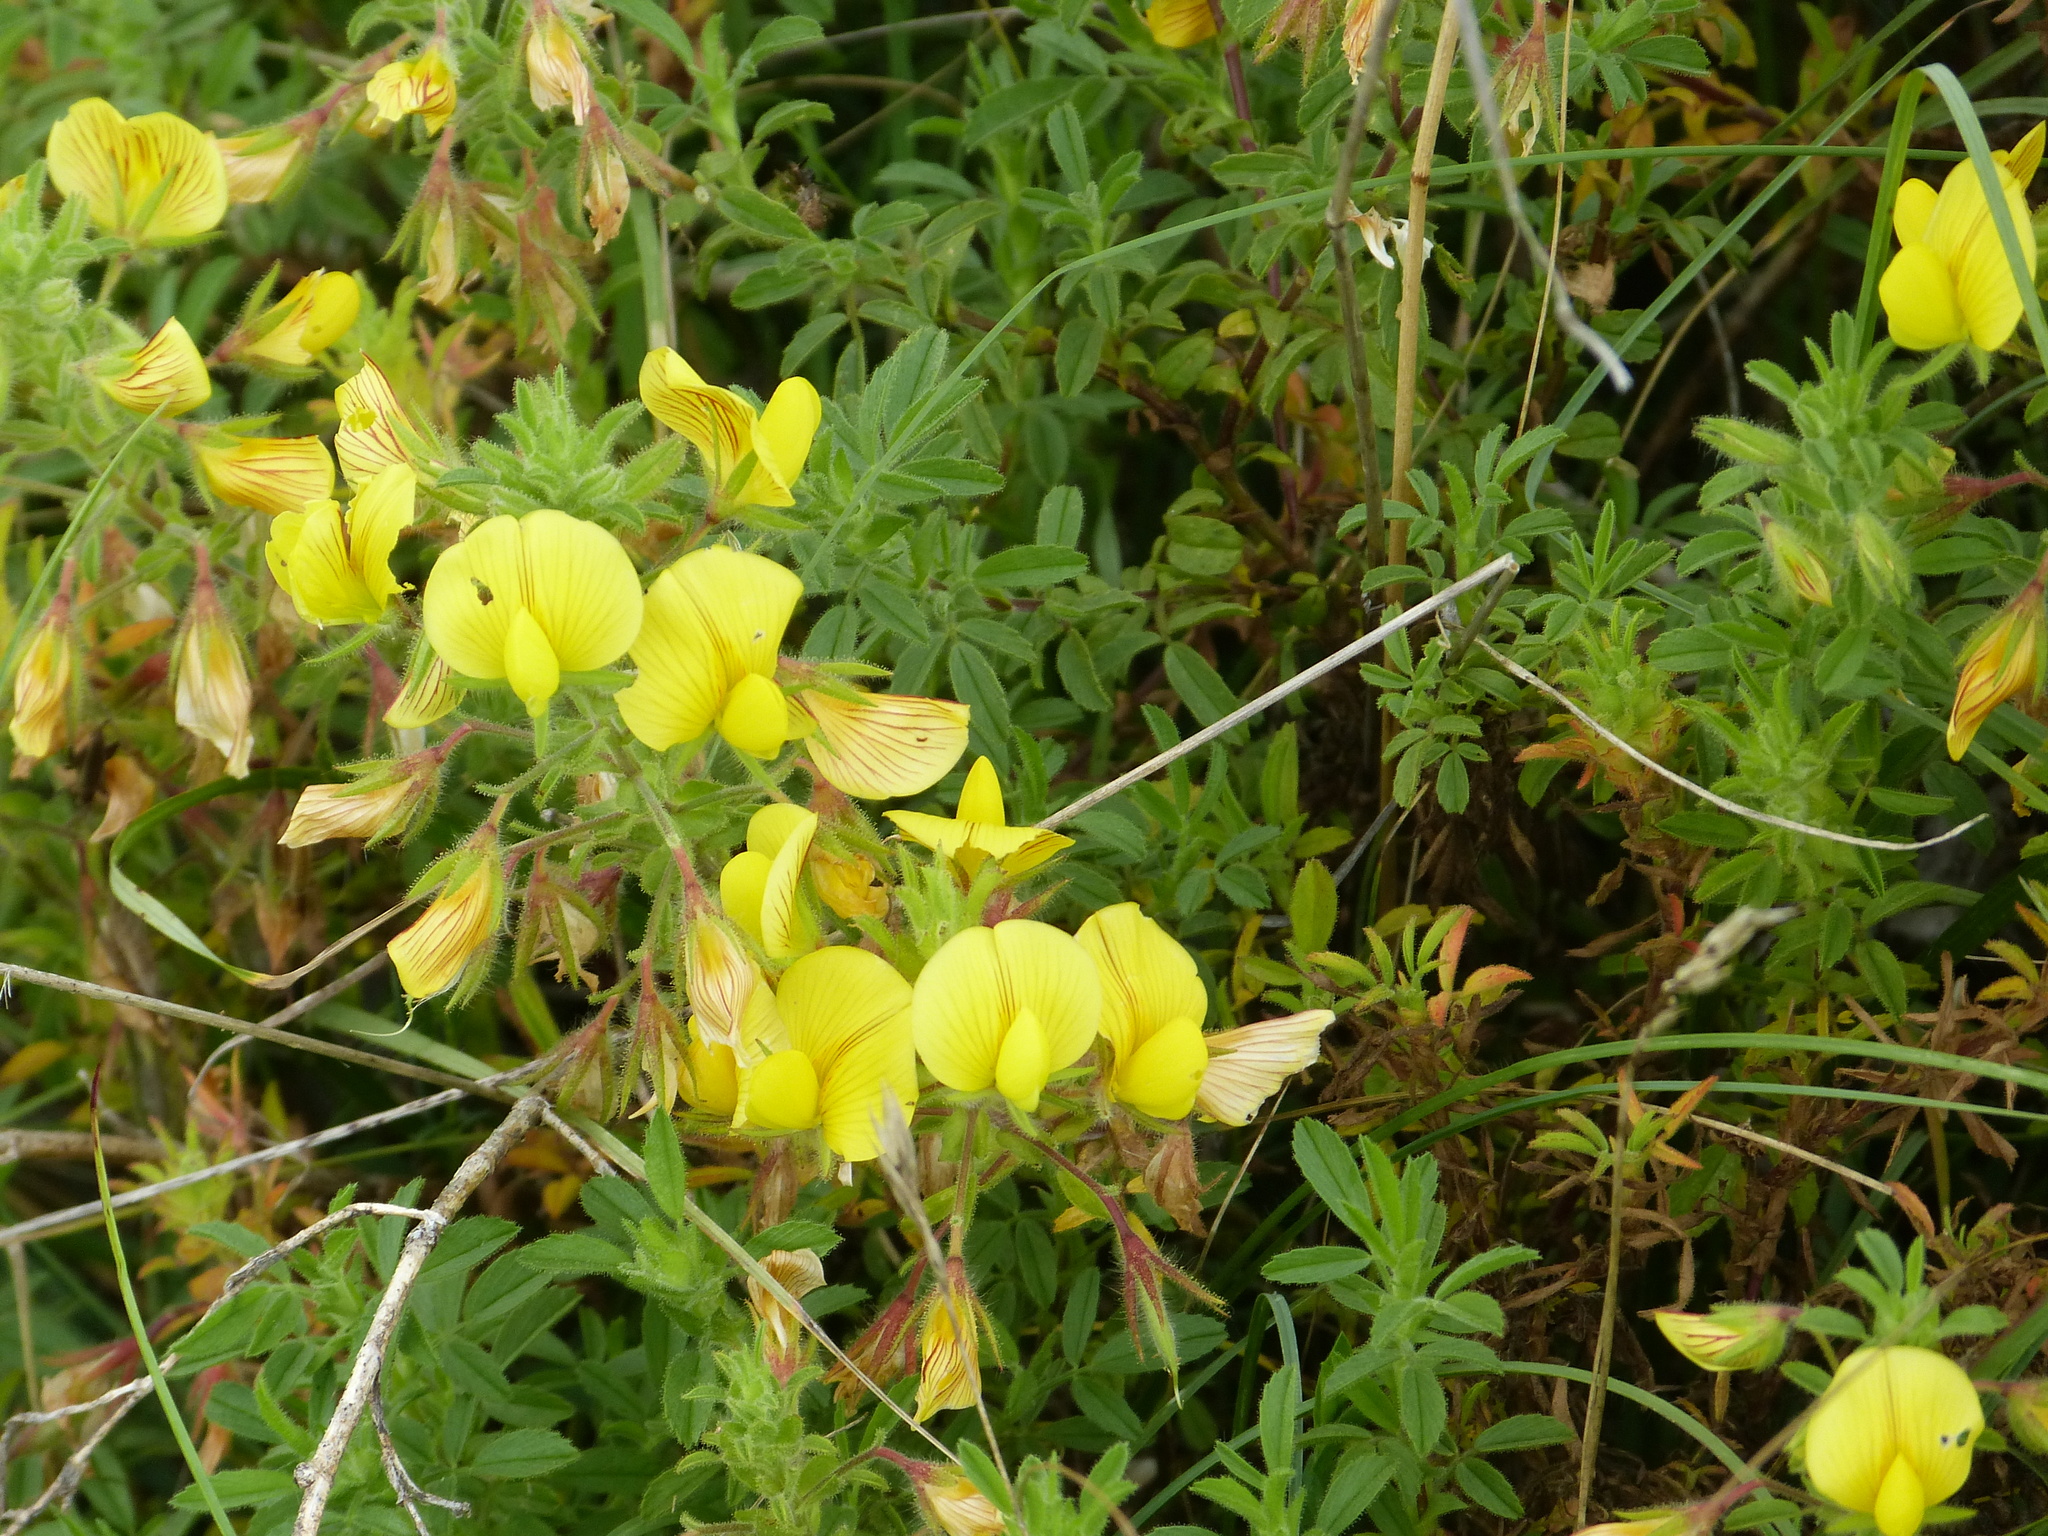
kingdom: Plantae
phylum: Tracheophyta
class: Magnoliopsida
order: Fabales
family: Fabaceae
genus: Ononis
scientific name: Ononis natrix
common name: Yellow restharrow
